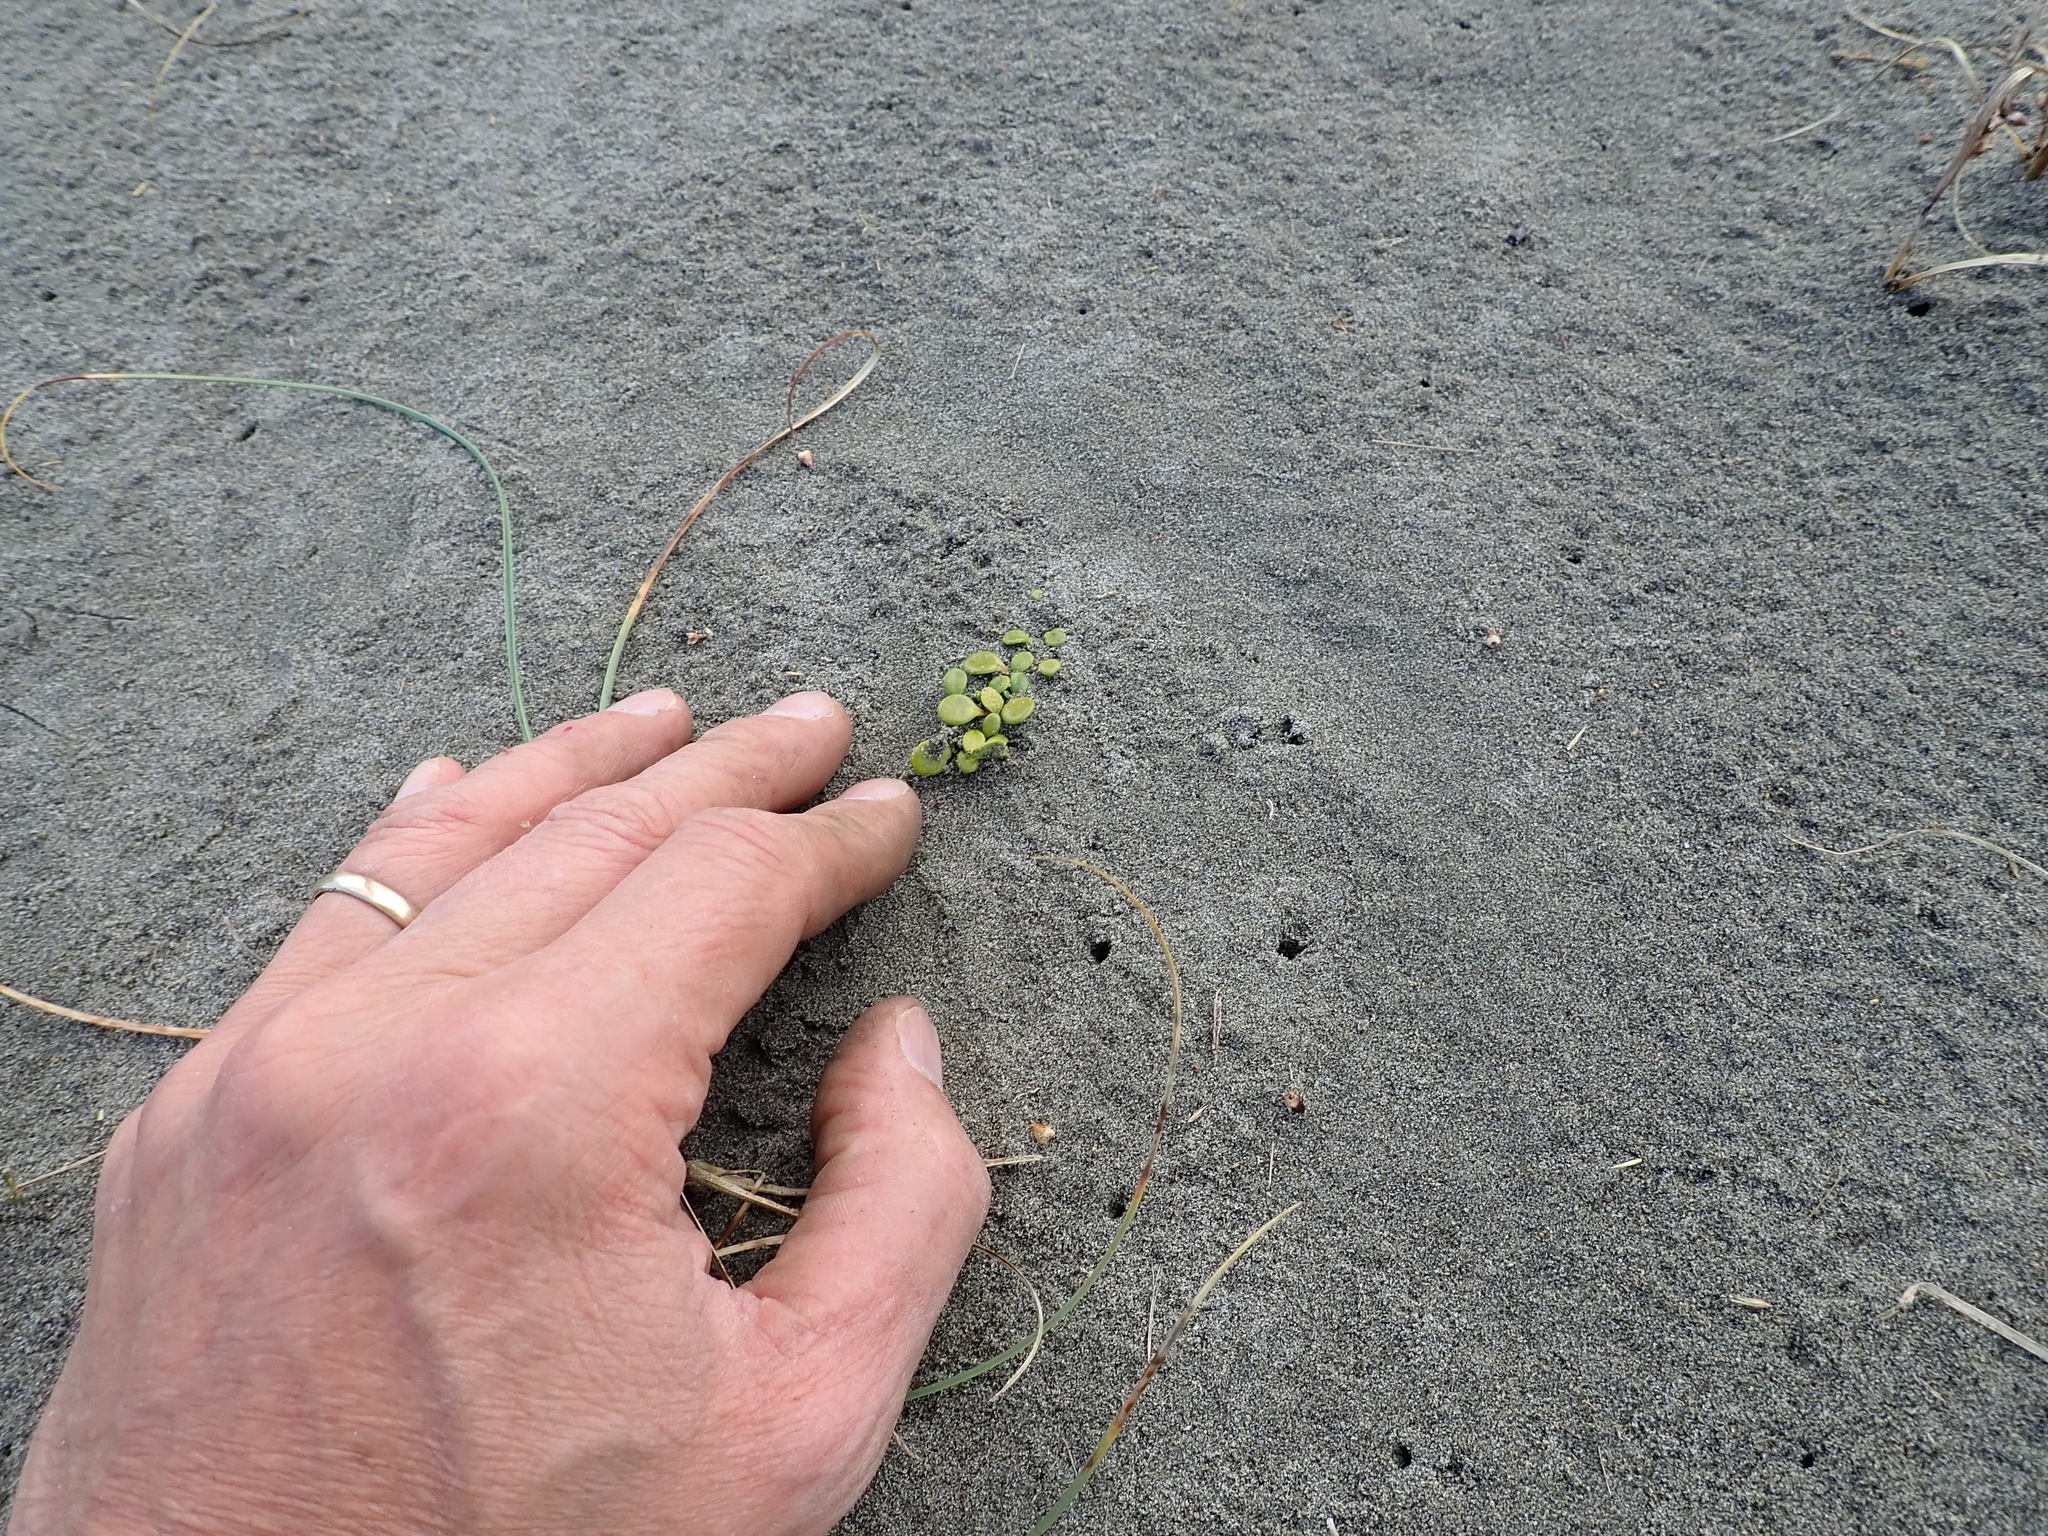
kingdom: Plantae
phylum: Tracheophyta
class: Magnoliopsida
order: Asterales
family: Goodeniaceae
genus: Goodenia
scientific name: Goodenia heenanii
